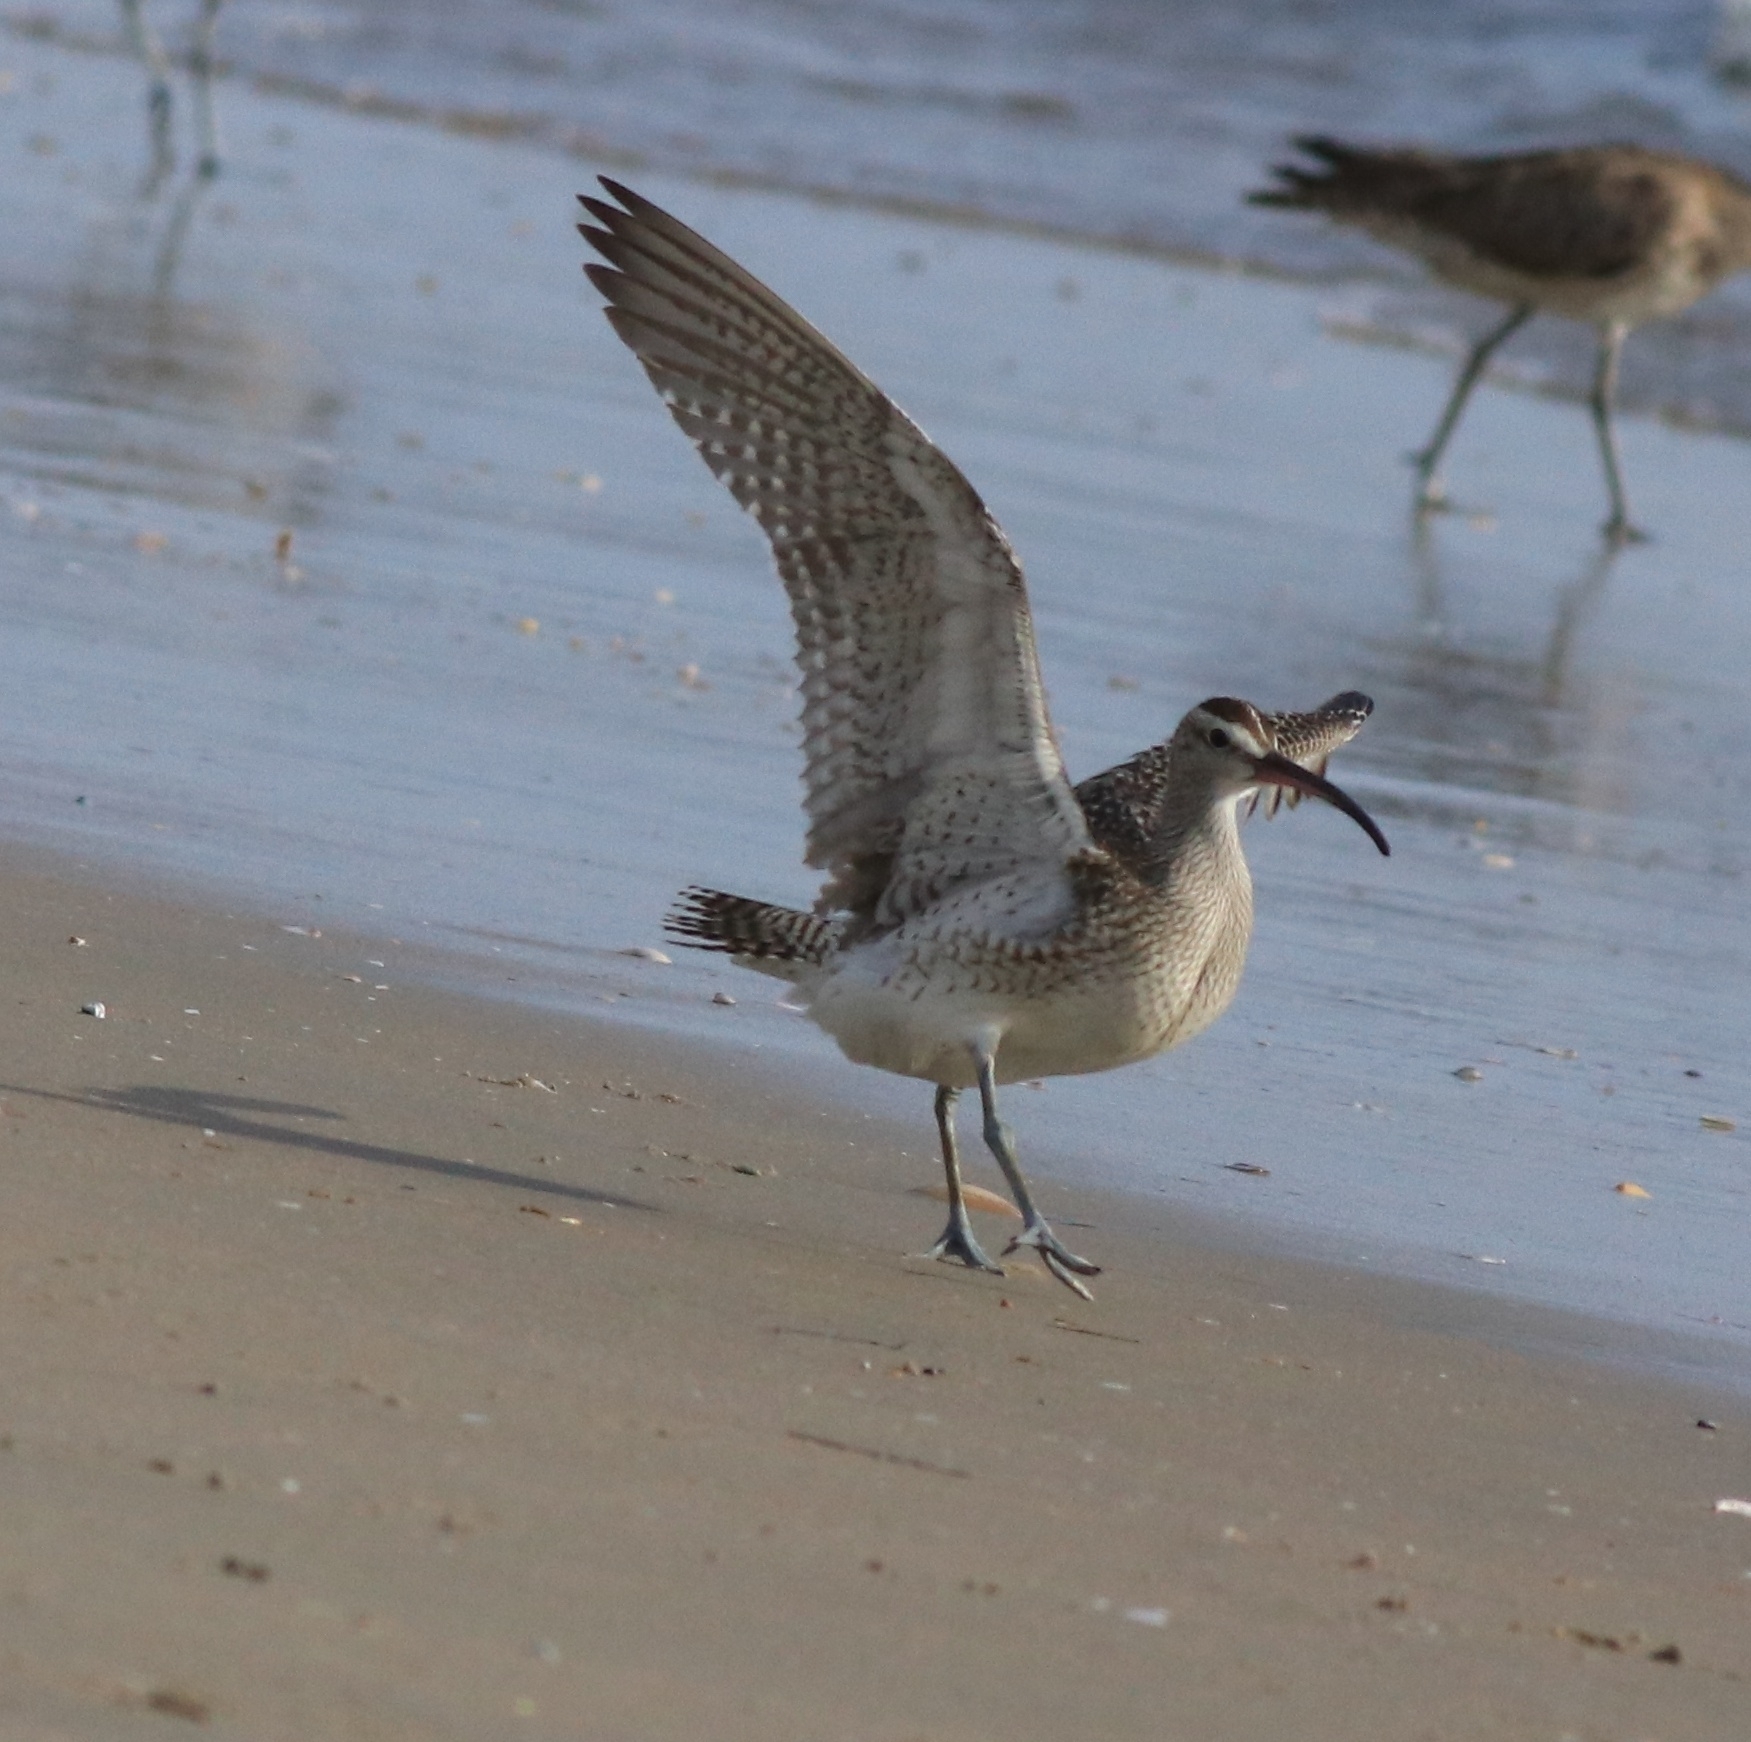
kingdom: Animalia
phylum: Chordata
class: Aves
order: Charadriiformes
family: Scolopacidae
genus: Numenius
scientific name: Numenius phaeopus
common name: Whimbrel
